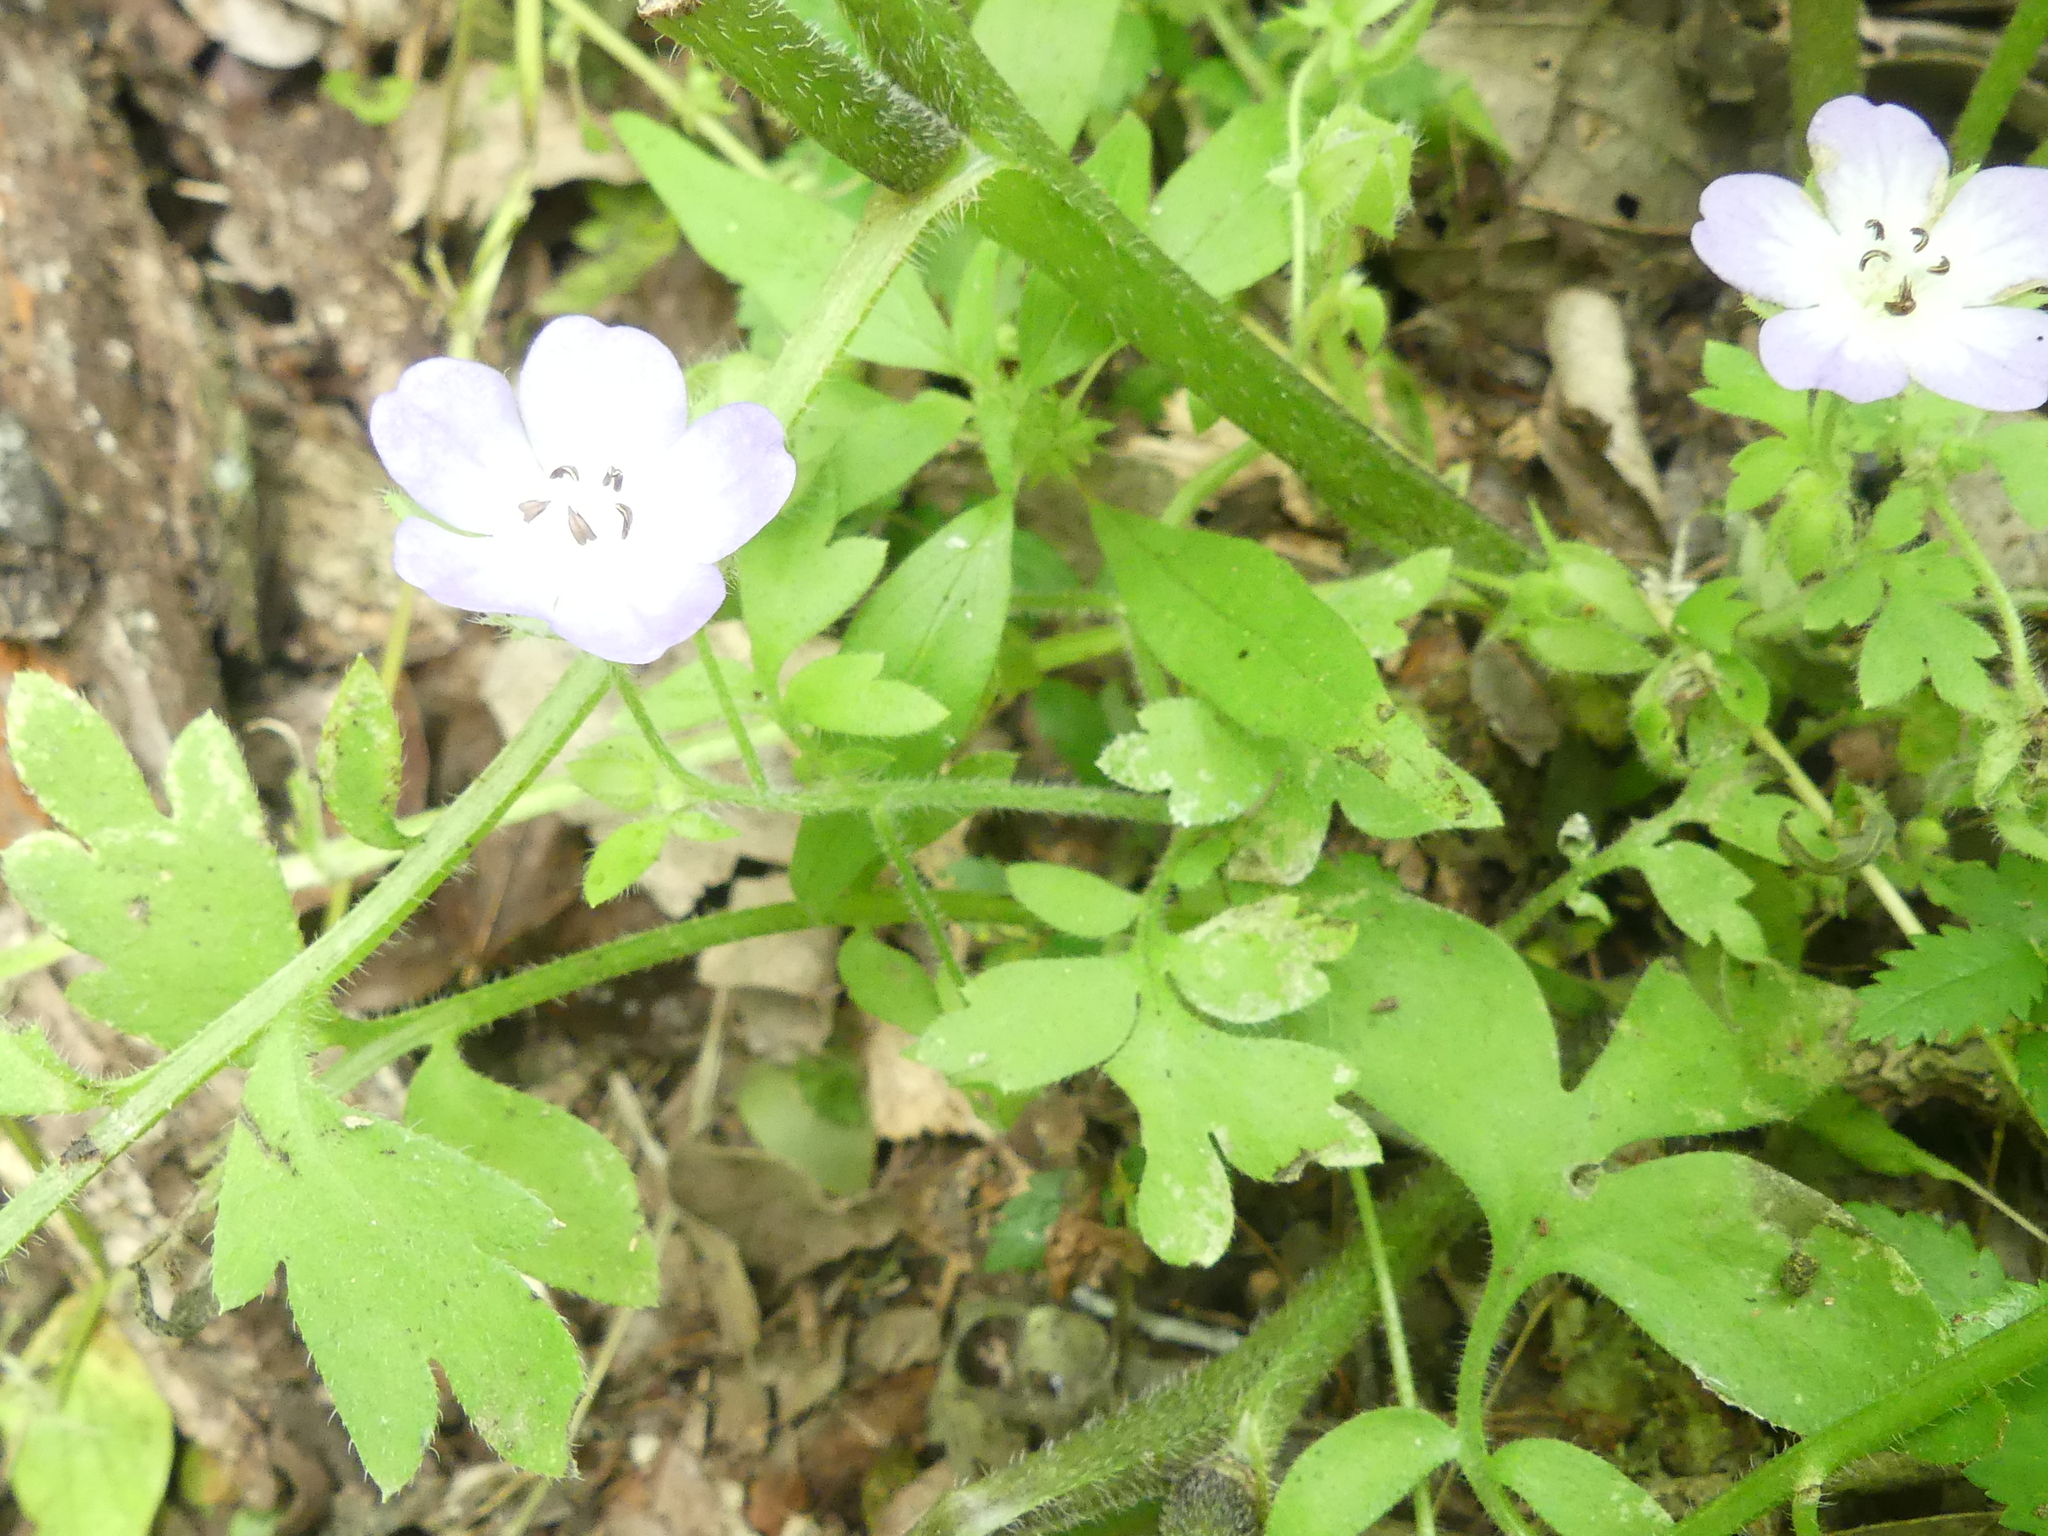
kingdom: Plantae
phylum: Tracheophyta
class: Magnoliopsida
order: Boraginales
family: Hydrophyllaceae
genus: Nemophila
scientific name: Nemophila phacelioides
